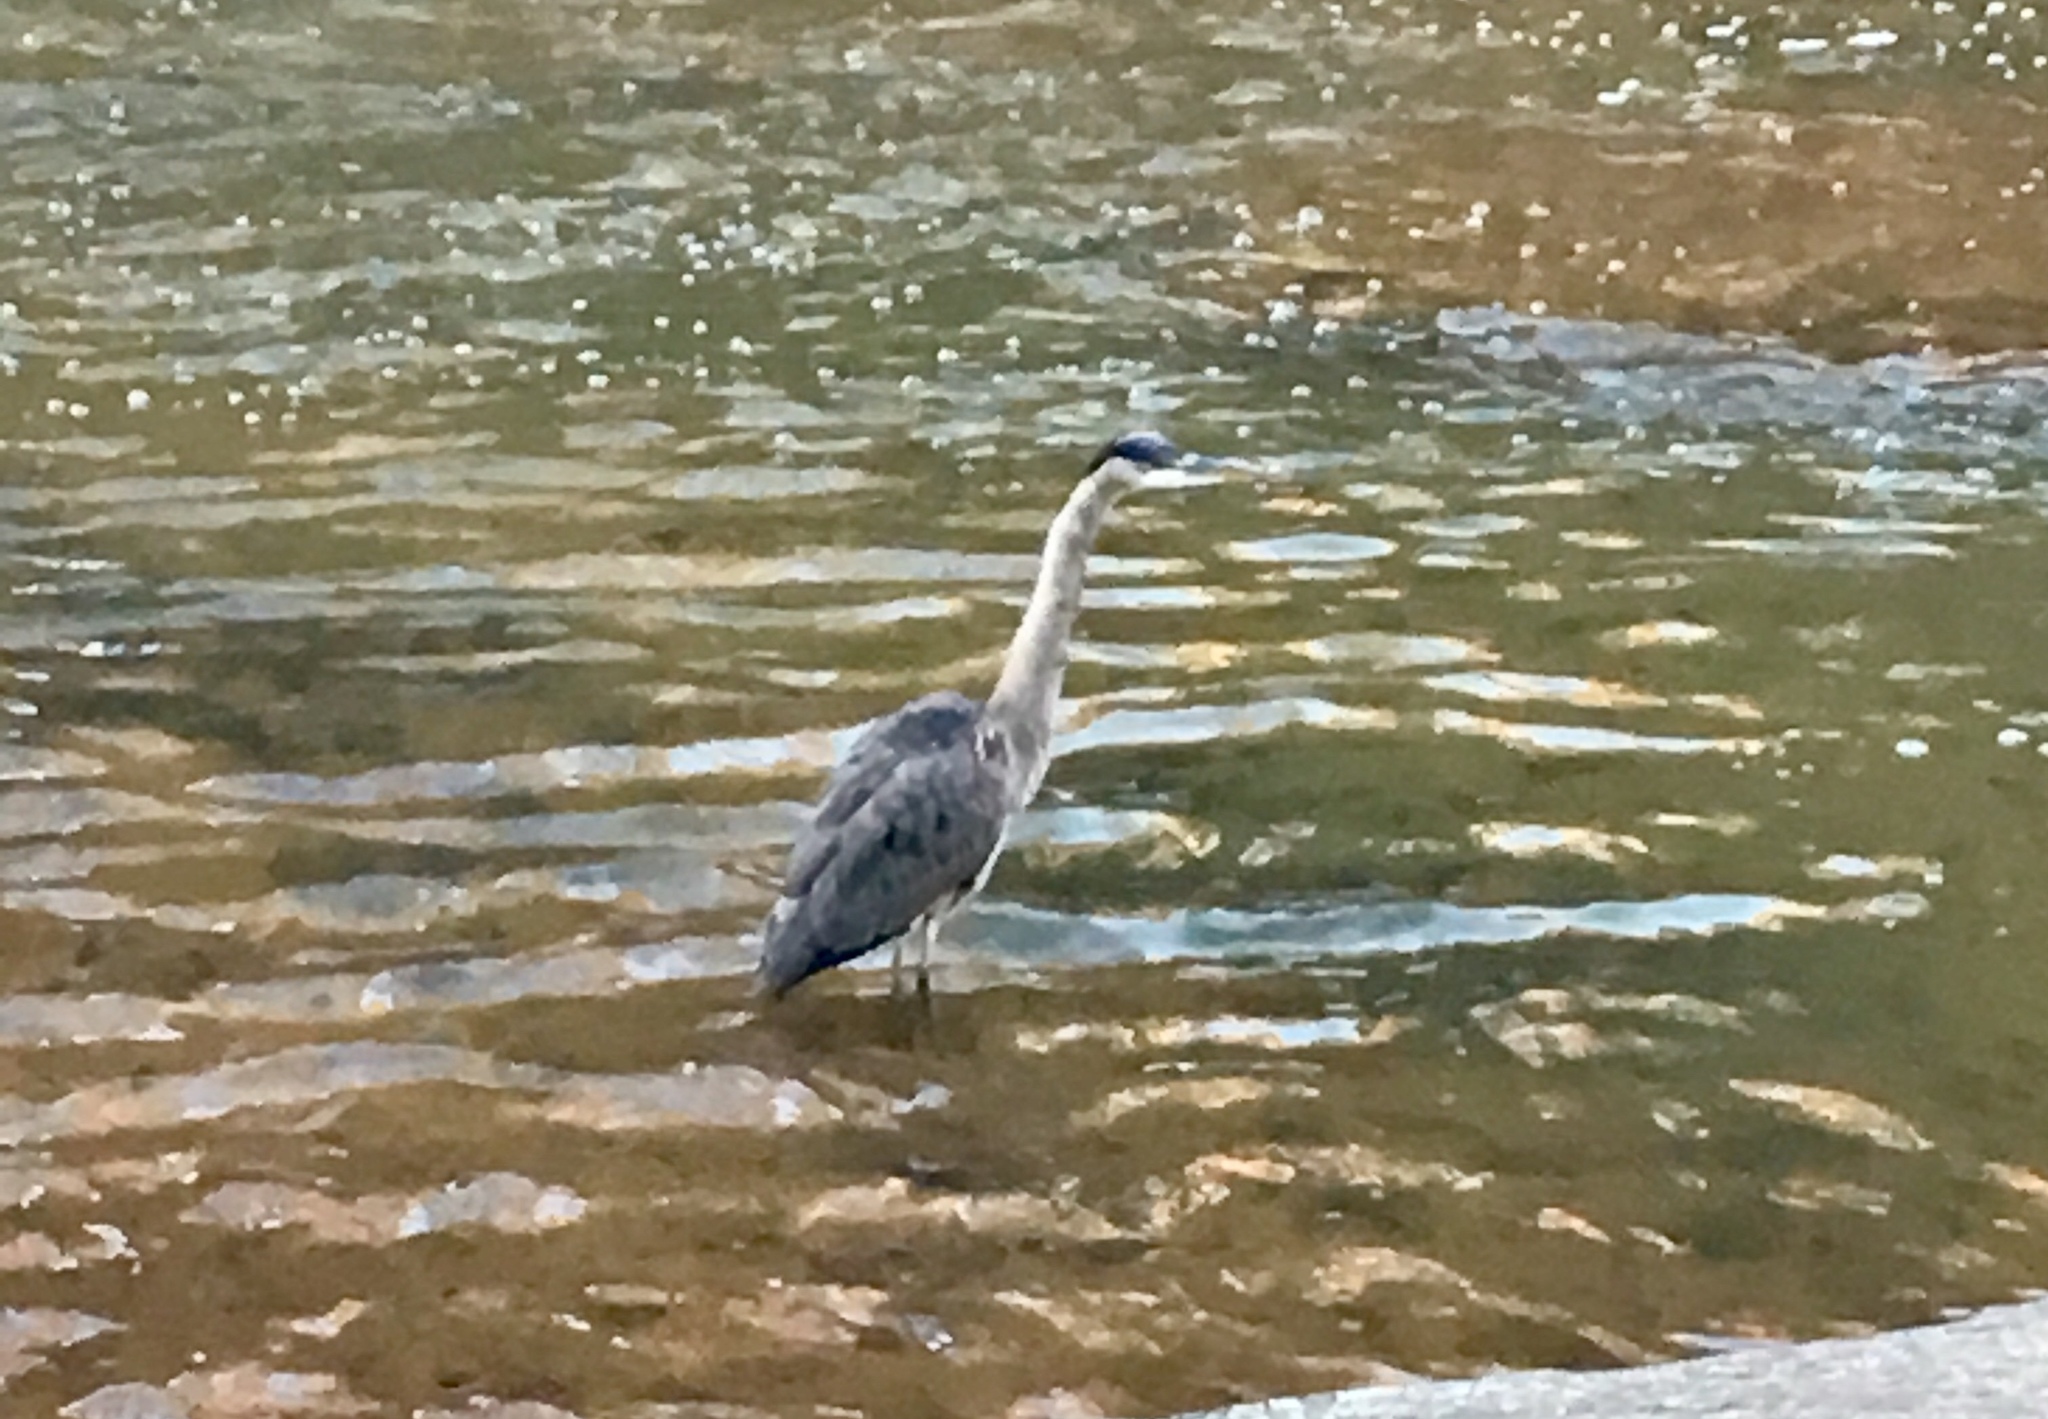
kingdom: Animalia
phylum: Chordata
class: Aves
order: Pelecaniformes
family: Ardeidae
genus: Ardea
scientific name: Ardea herodias
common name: Great blue heron
